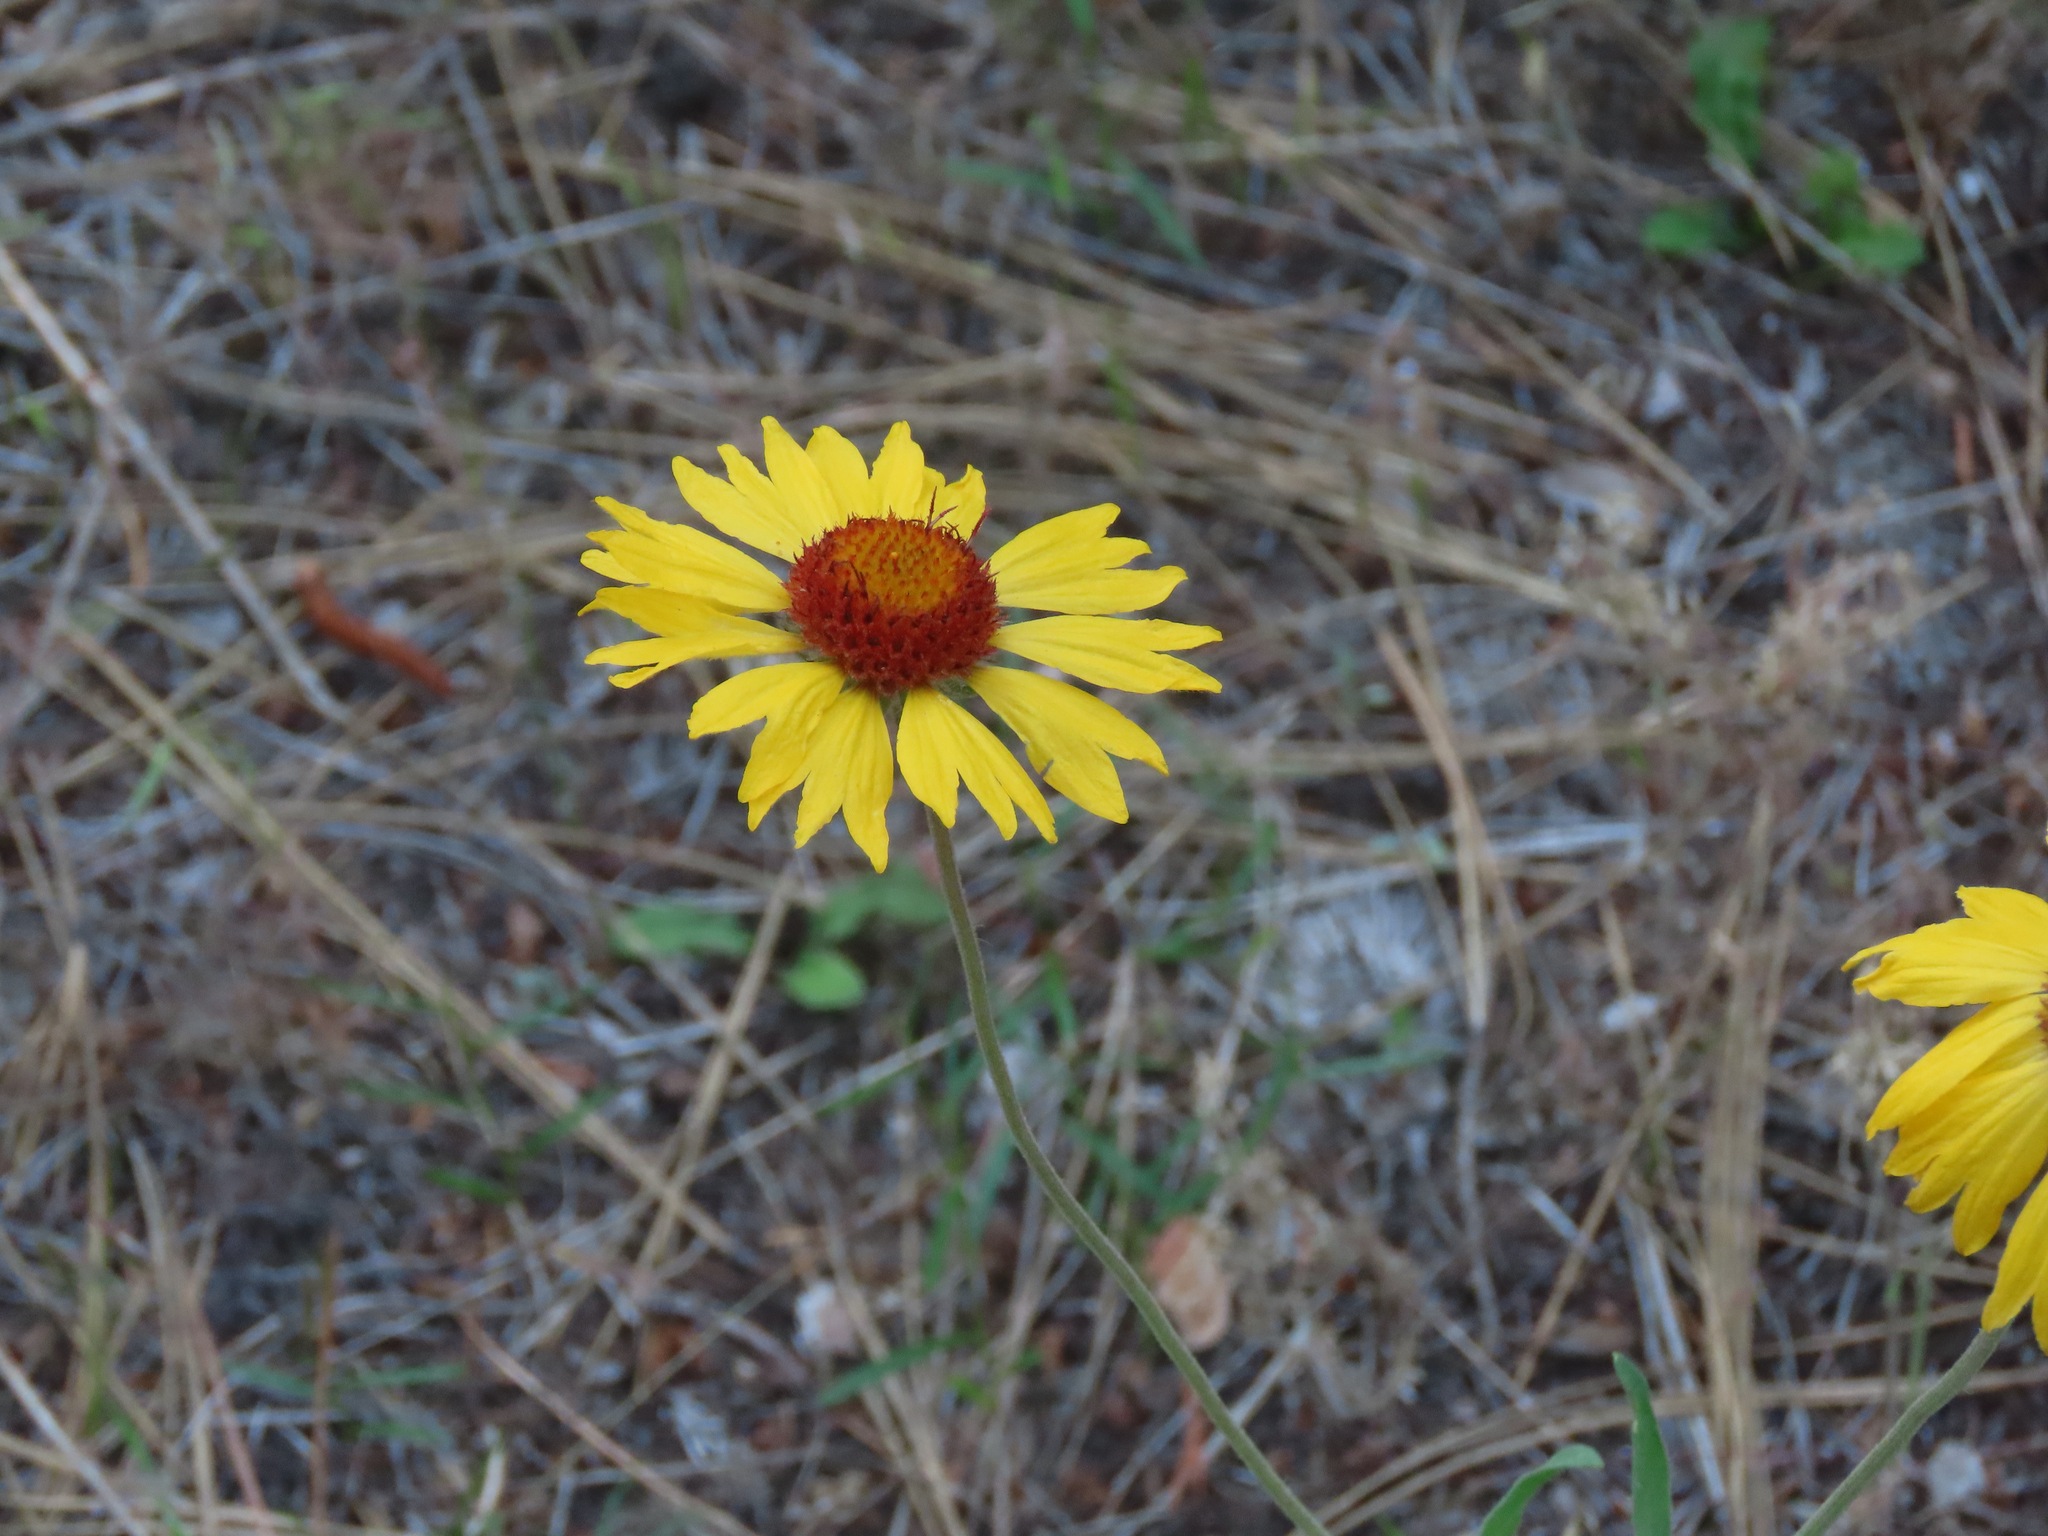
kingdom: Plantae
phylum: Tracheophyta
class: Magnoliopsida
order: Asterales
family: Asteraceae
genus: Gaillardia
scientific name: Gaillardia aristata
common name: Blanket-flower
